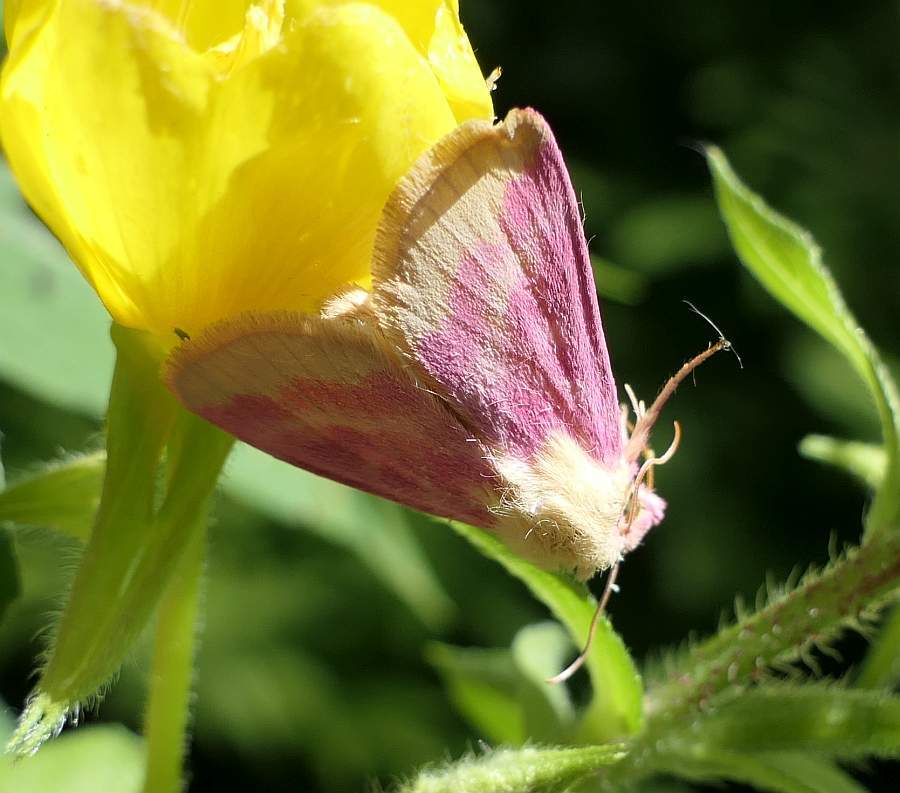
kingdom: Animalia
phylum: Arthropoda
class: Insecta
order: Lepidoptera
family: Noctuidae
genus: Schinia
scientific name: Schinia florida
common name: Primrose moth
